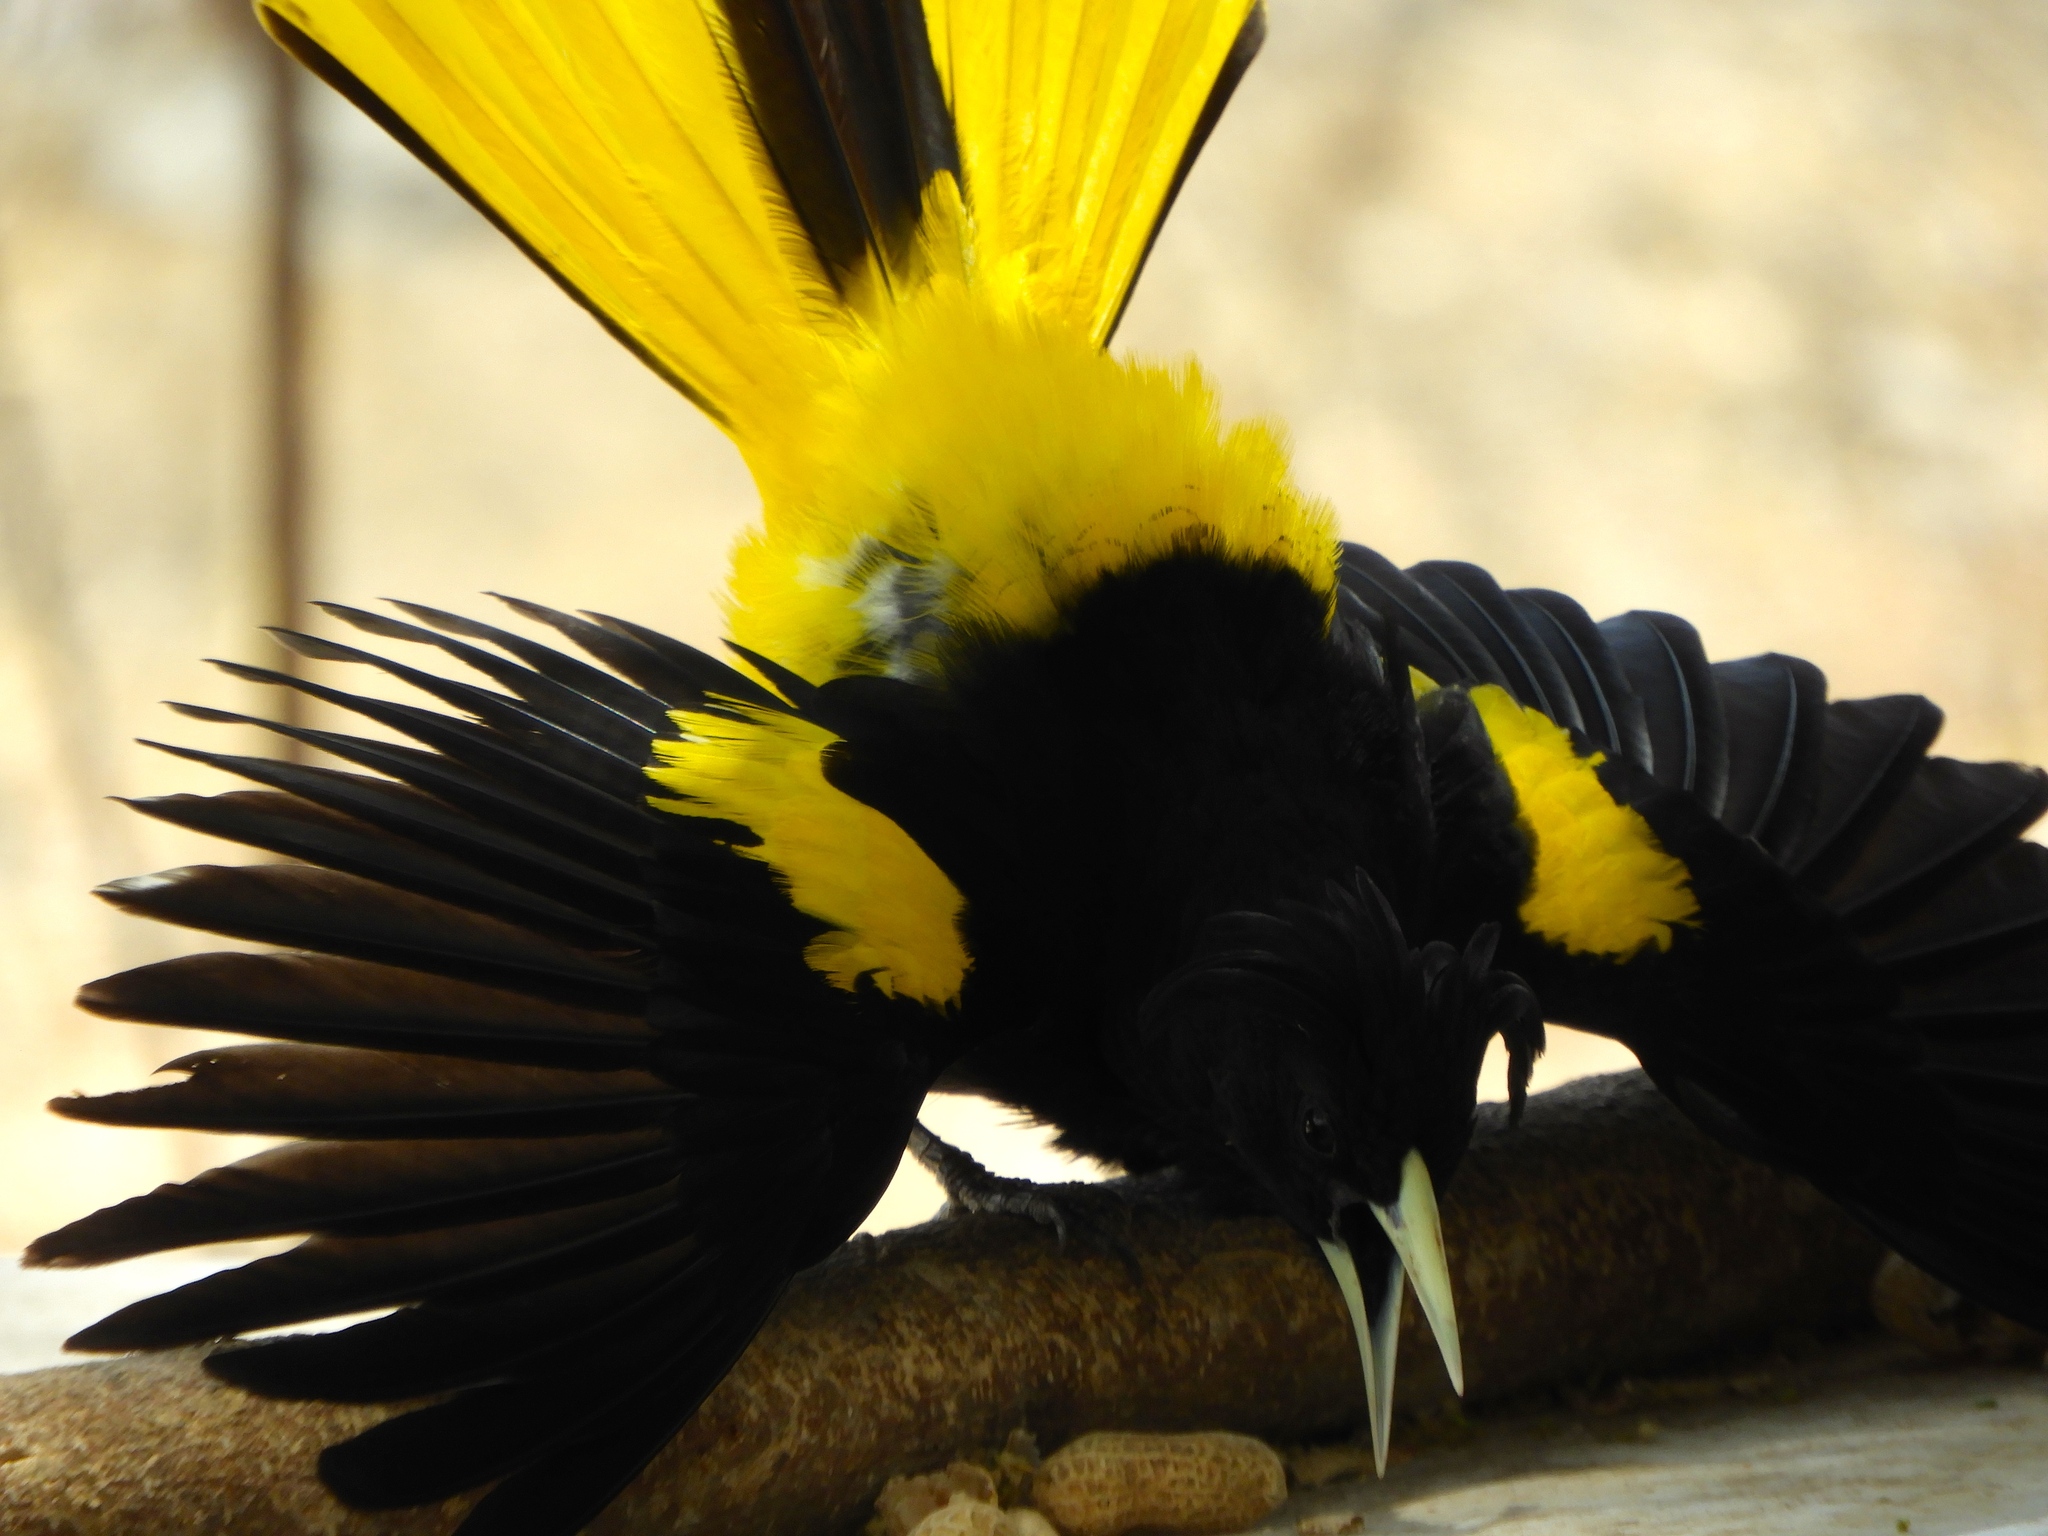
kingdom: Animalia
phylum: Chordata
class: Aves
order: Passeriformes
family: Icteridae
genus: Cacicus
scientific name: Cacicus melanicterus
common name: Yellow-winged cacique
